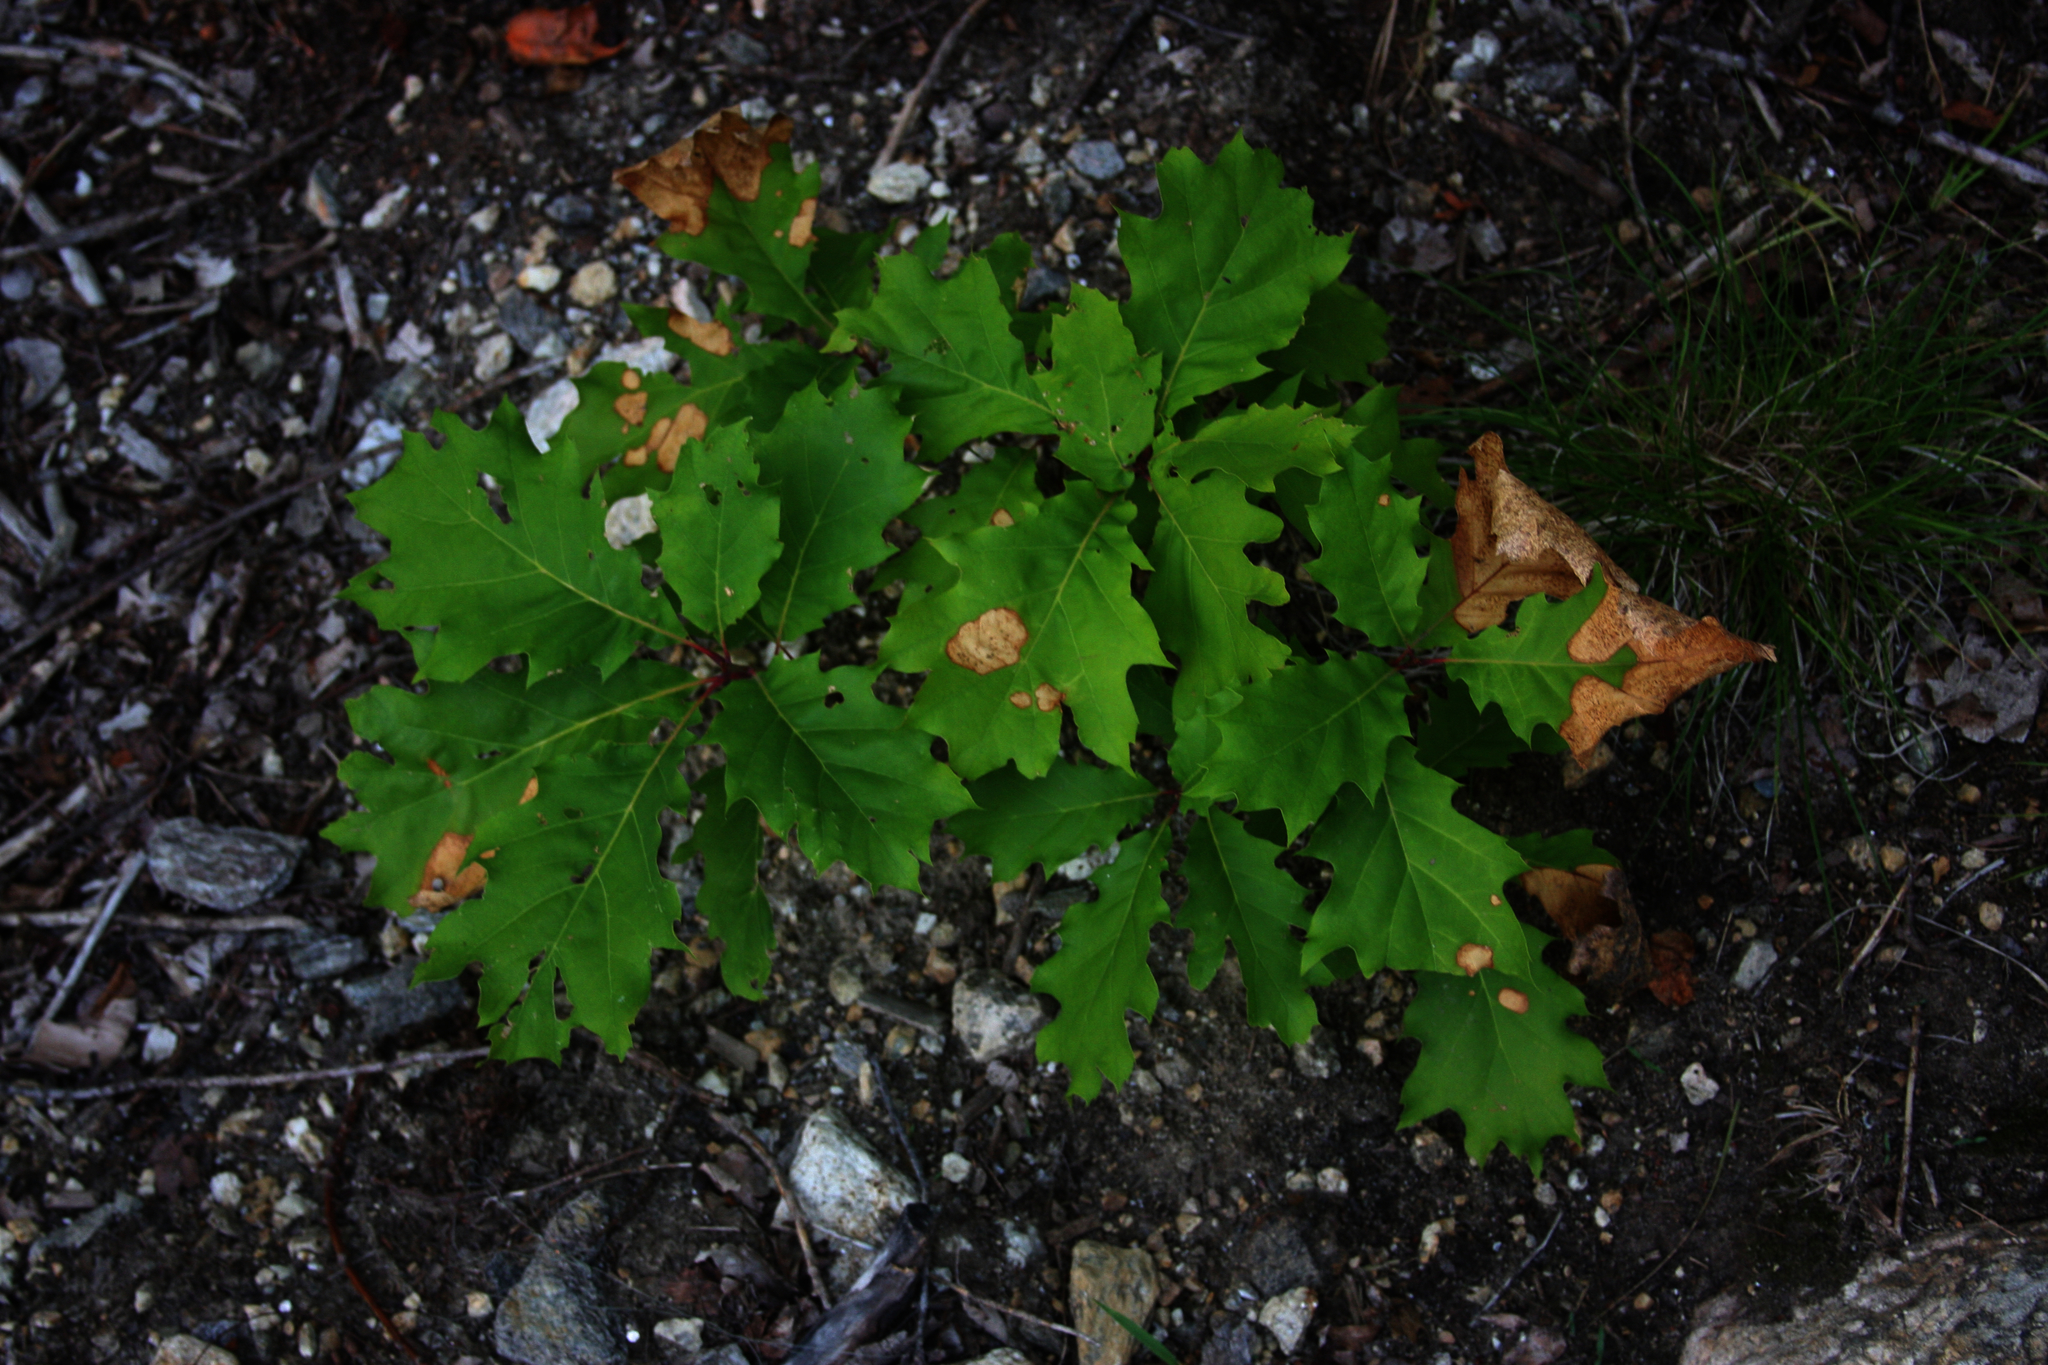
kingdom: Plantae
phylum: Tracheophyta
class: Magnoliopsida
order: Fagales
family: Fagaceae
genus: Quercus
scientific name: Quercus rubra
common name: Red oak
